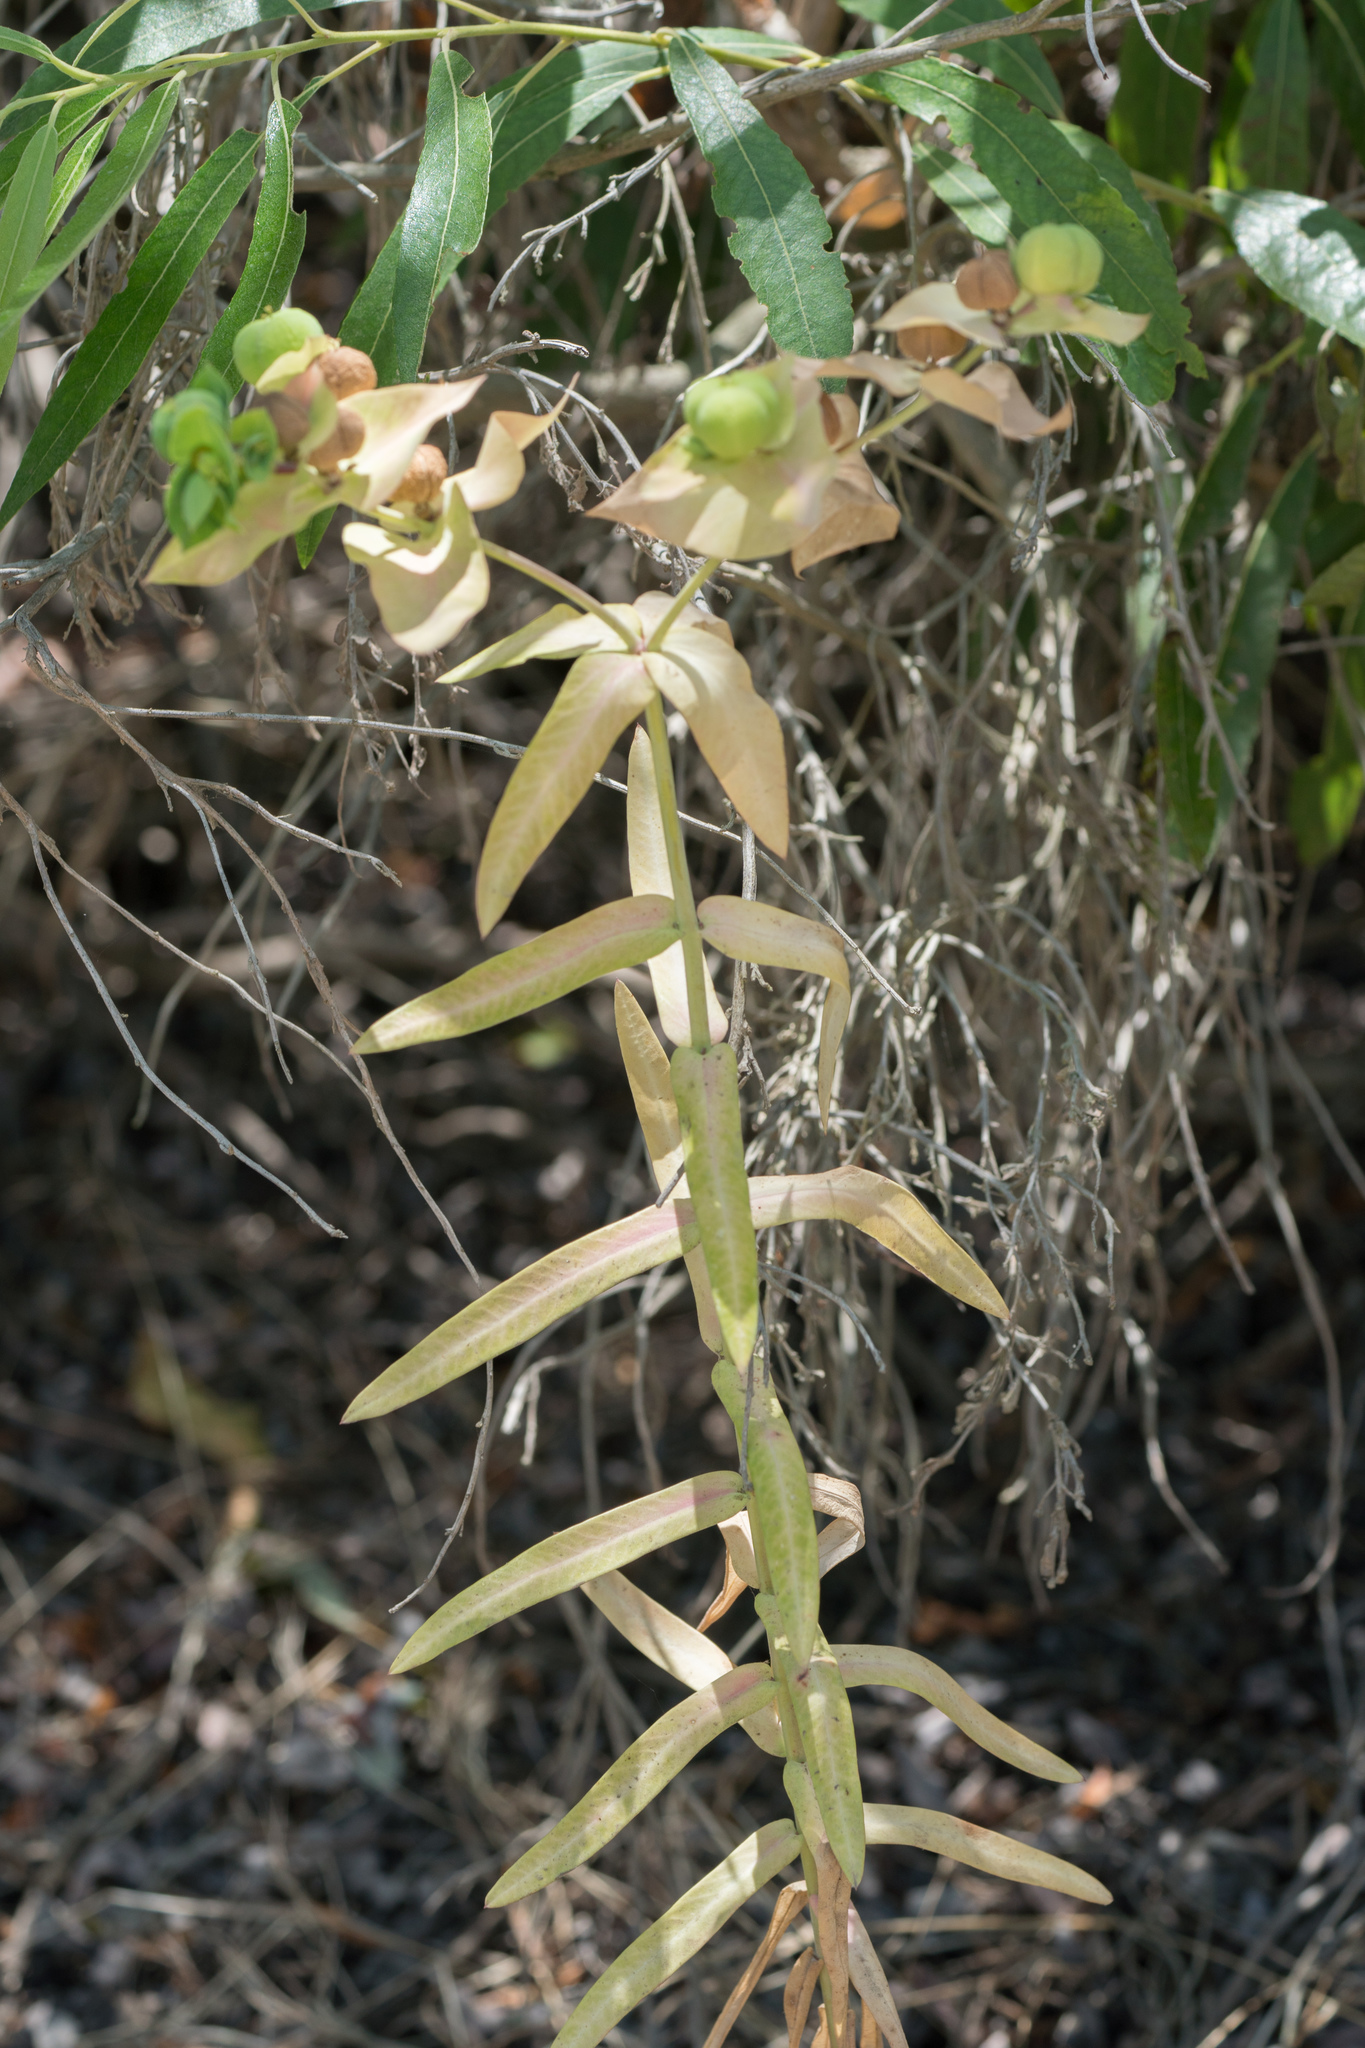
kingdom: Plantae
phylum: Tracheophyta
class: Magnoliopsida
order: Malpighiales
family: Euphorbiaceae
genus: Euphorbia
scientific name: Euphorbia lathyris
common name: Caper spurge
